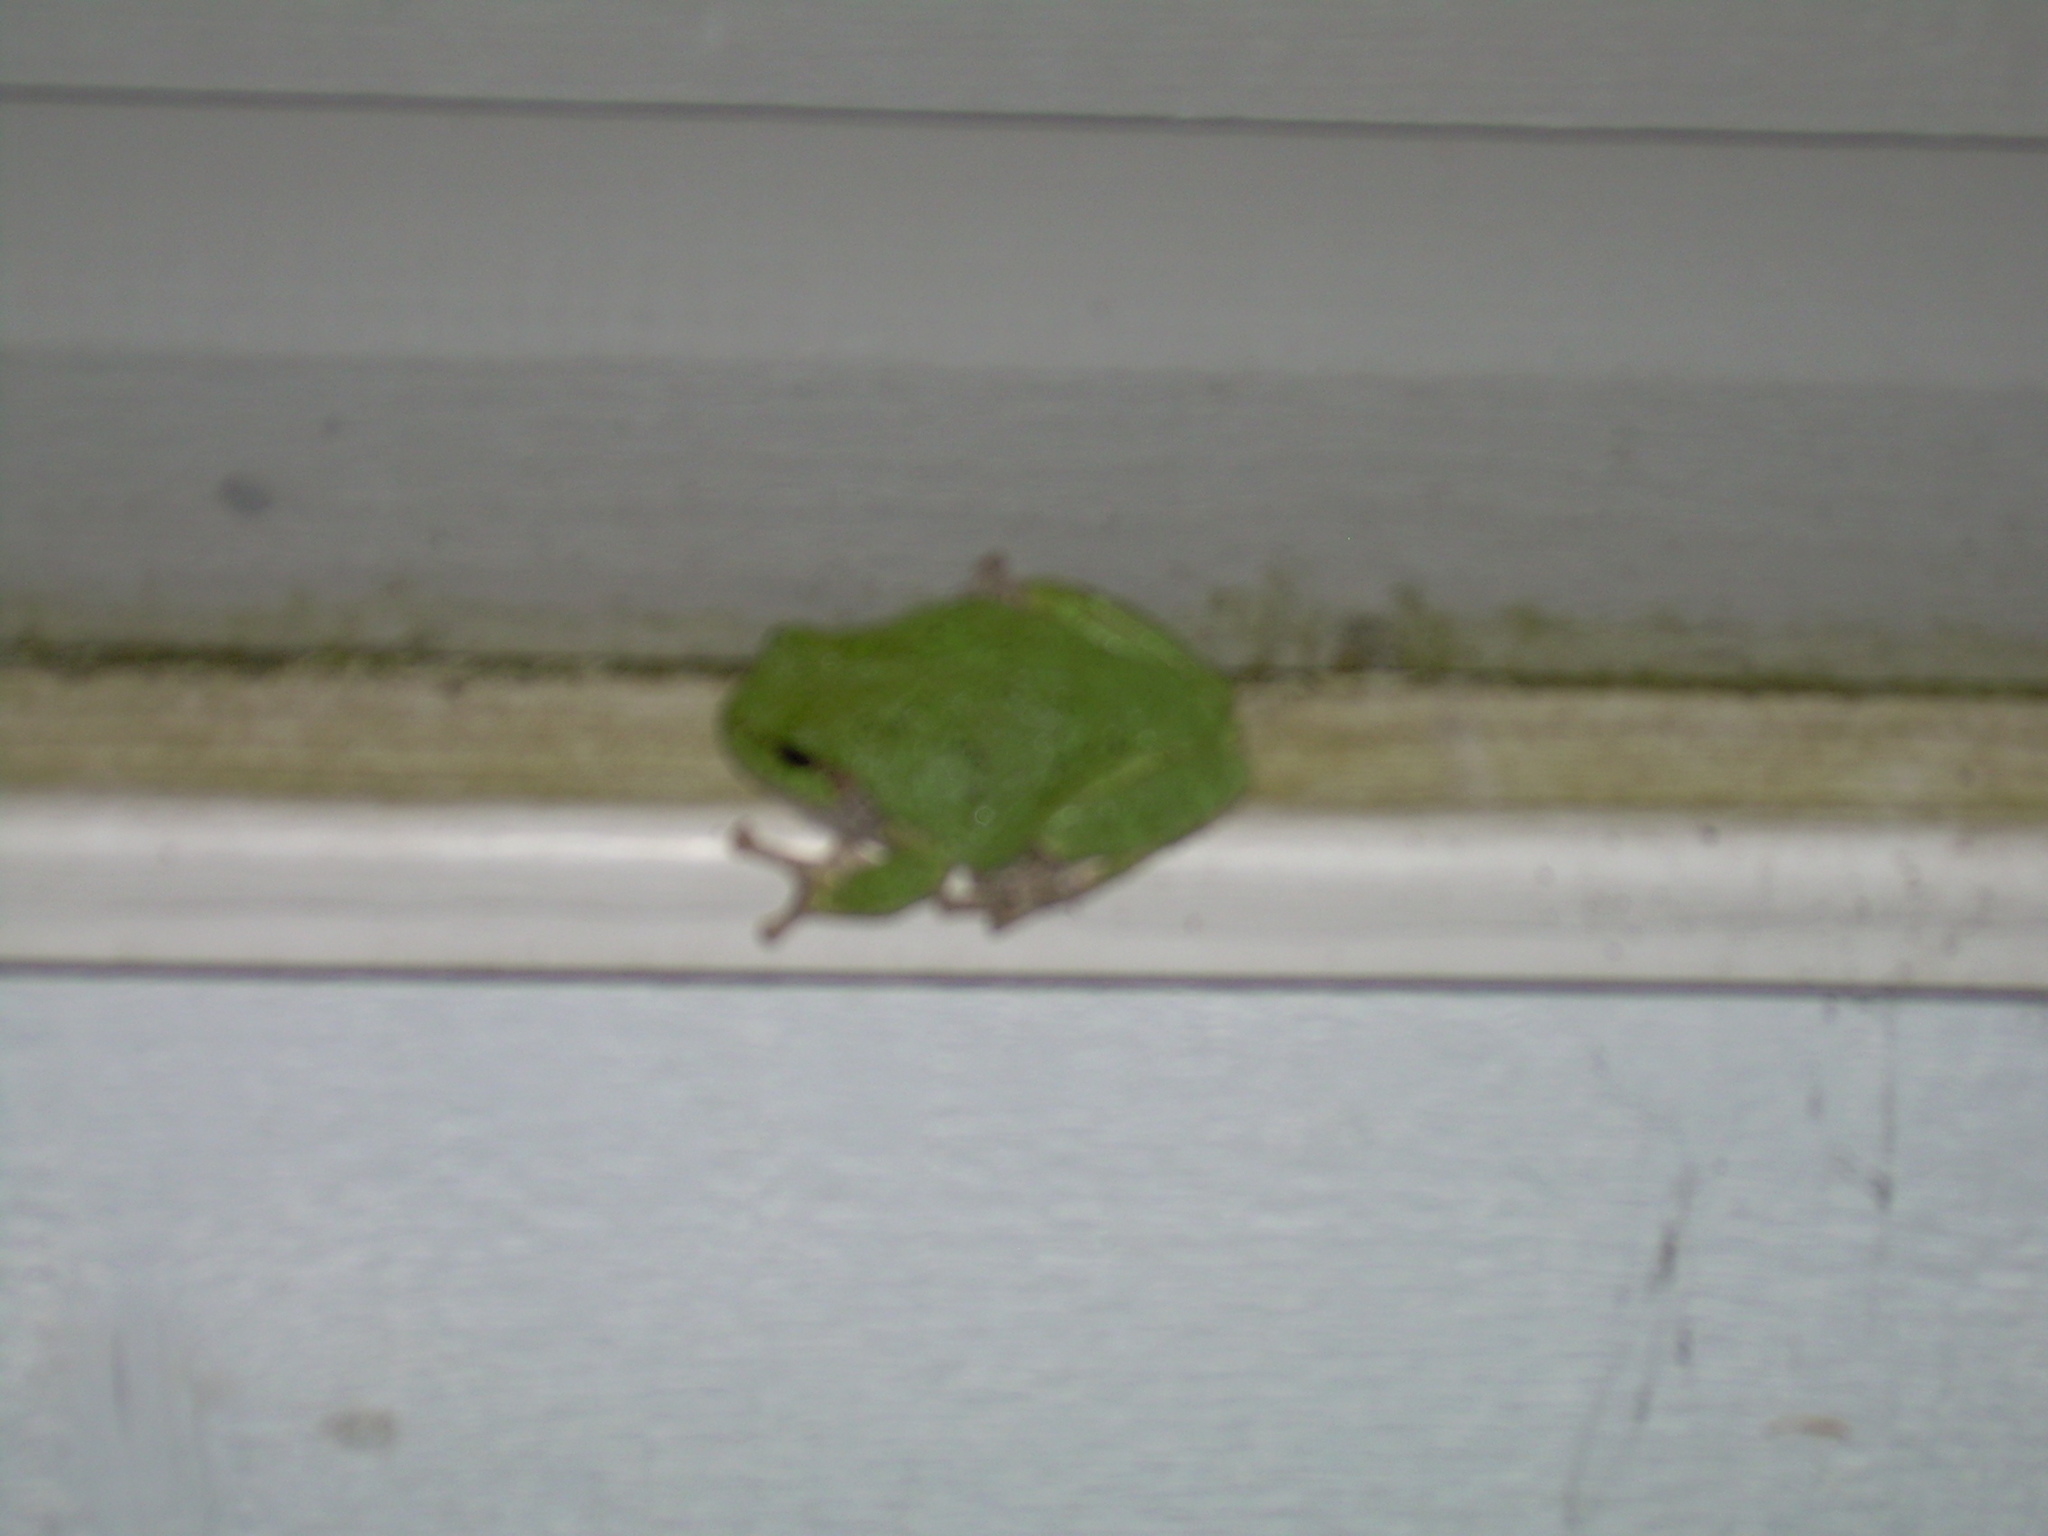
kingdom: Animalia
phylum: Chordata
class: Amphibia
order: Anura
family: Hylidae
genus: Dryophytes
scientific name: Dryophytes versicolor
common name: Gray treefrog
